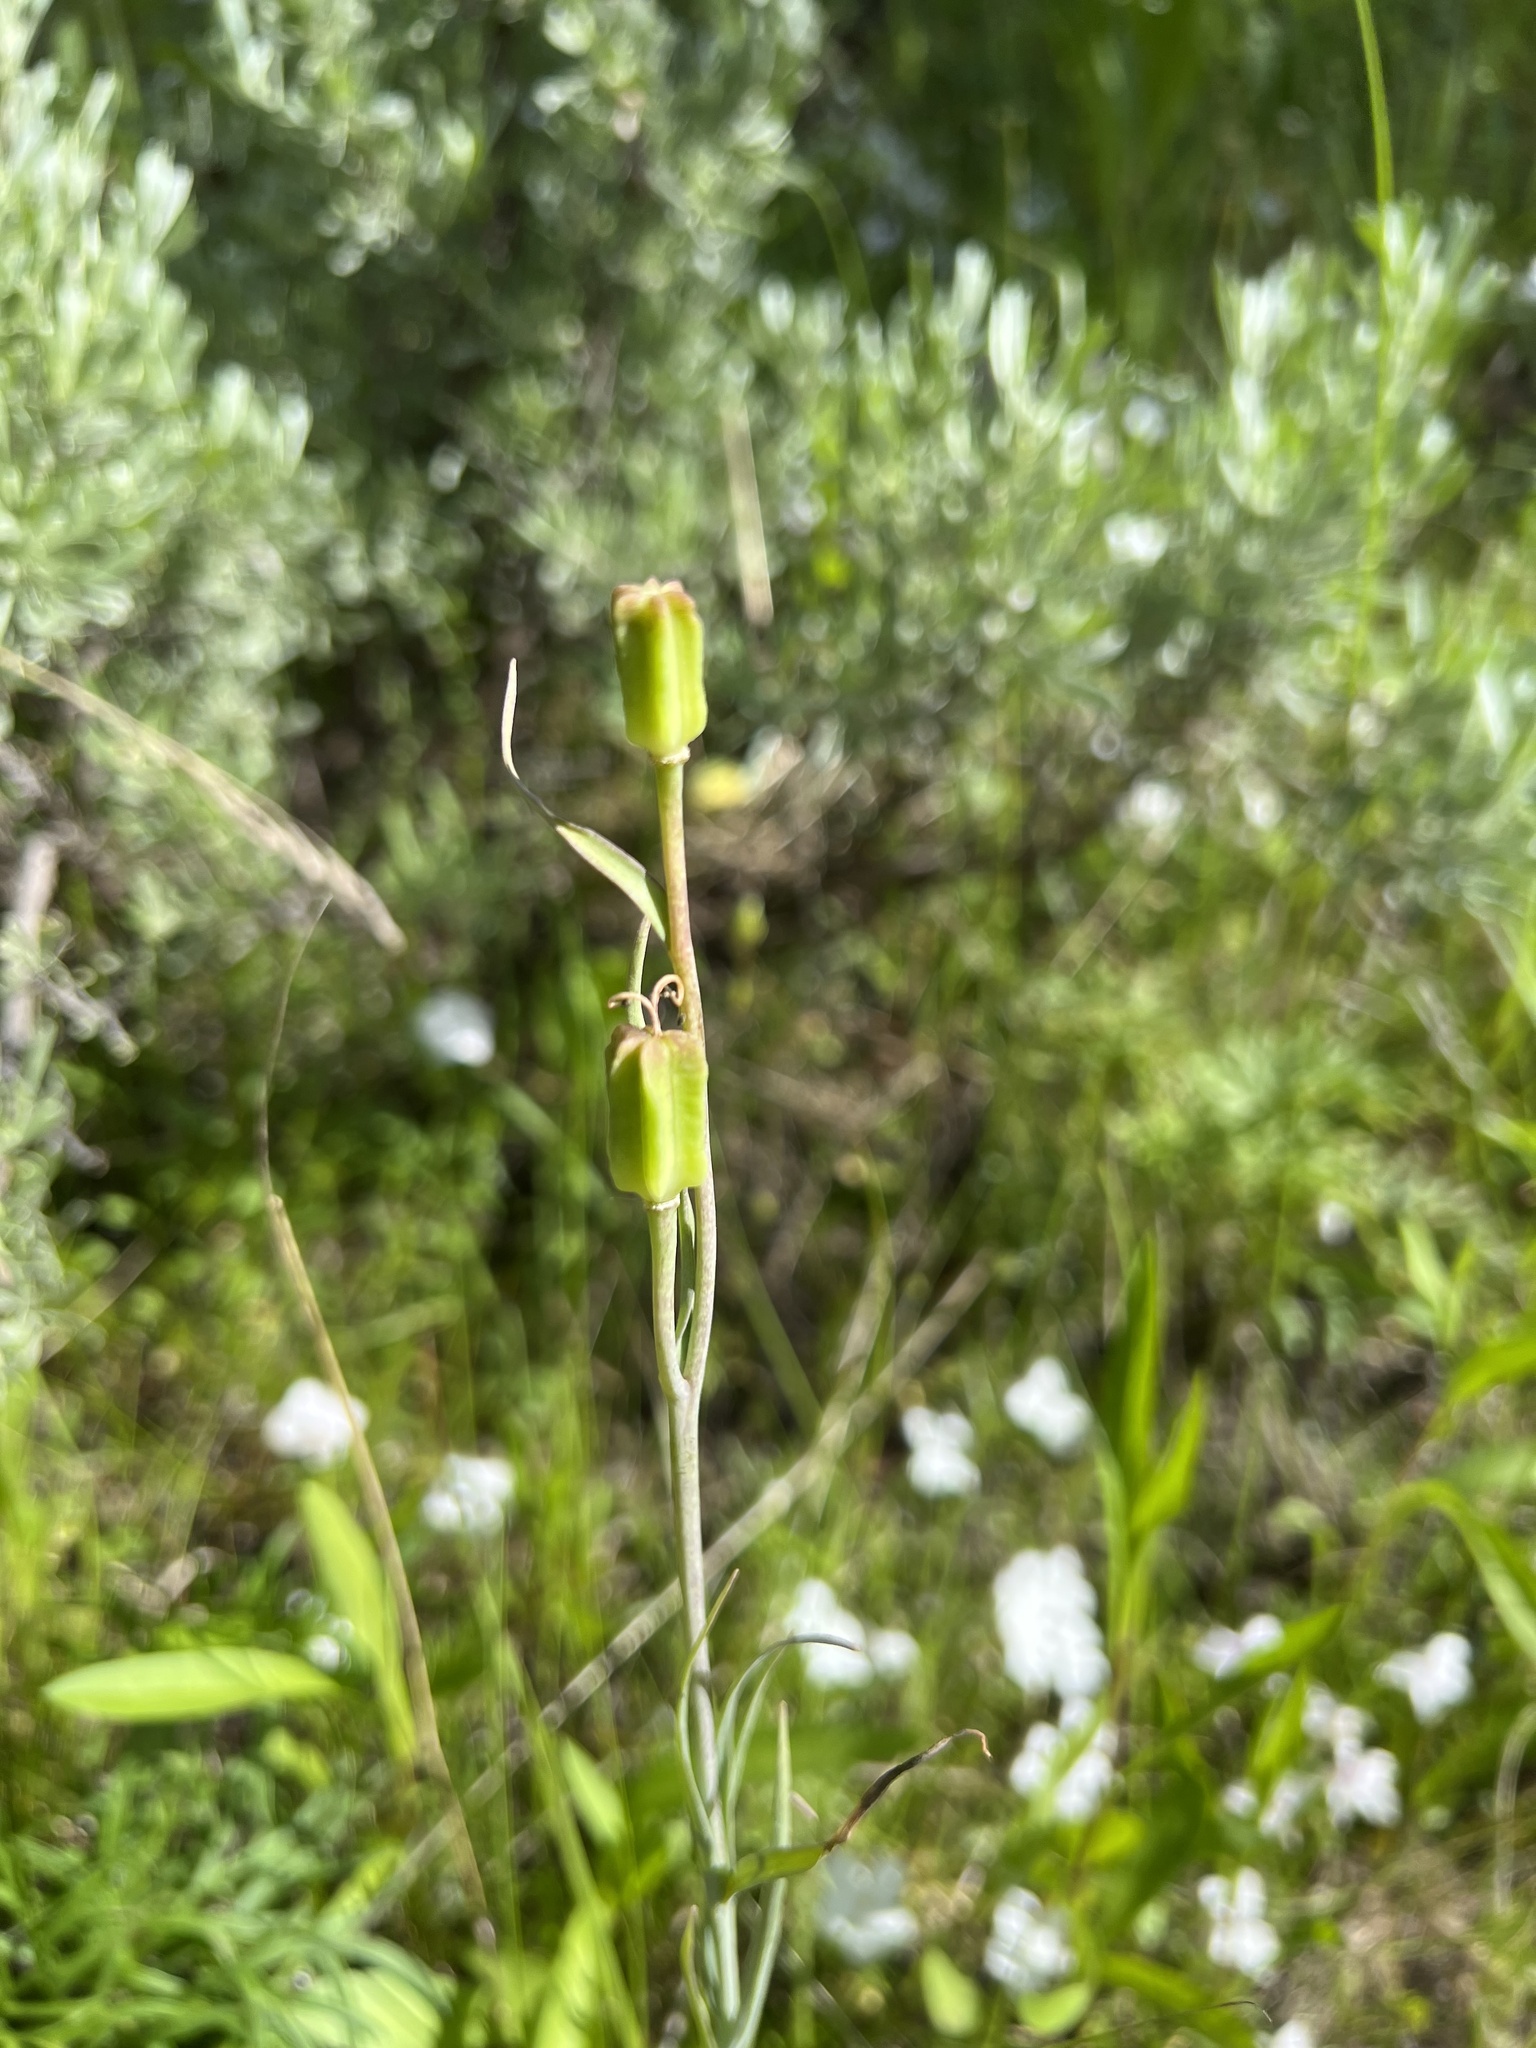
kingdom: Plantae
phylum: Tracheophyta
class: Liliopsida
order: Liliales
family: Liliaceae
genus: Fritillaria
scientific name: Fritillaria atropurpurea
